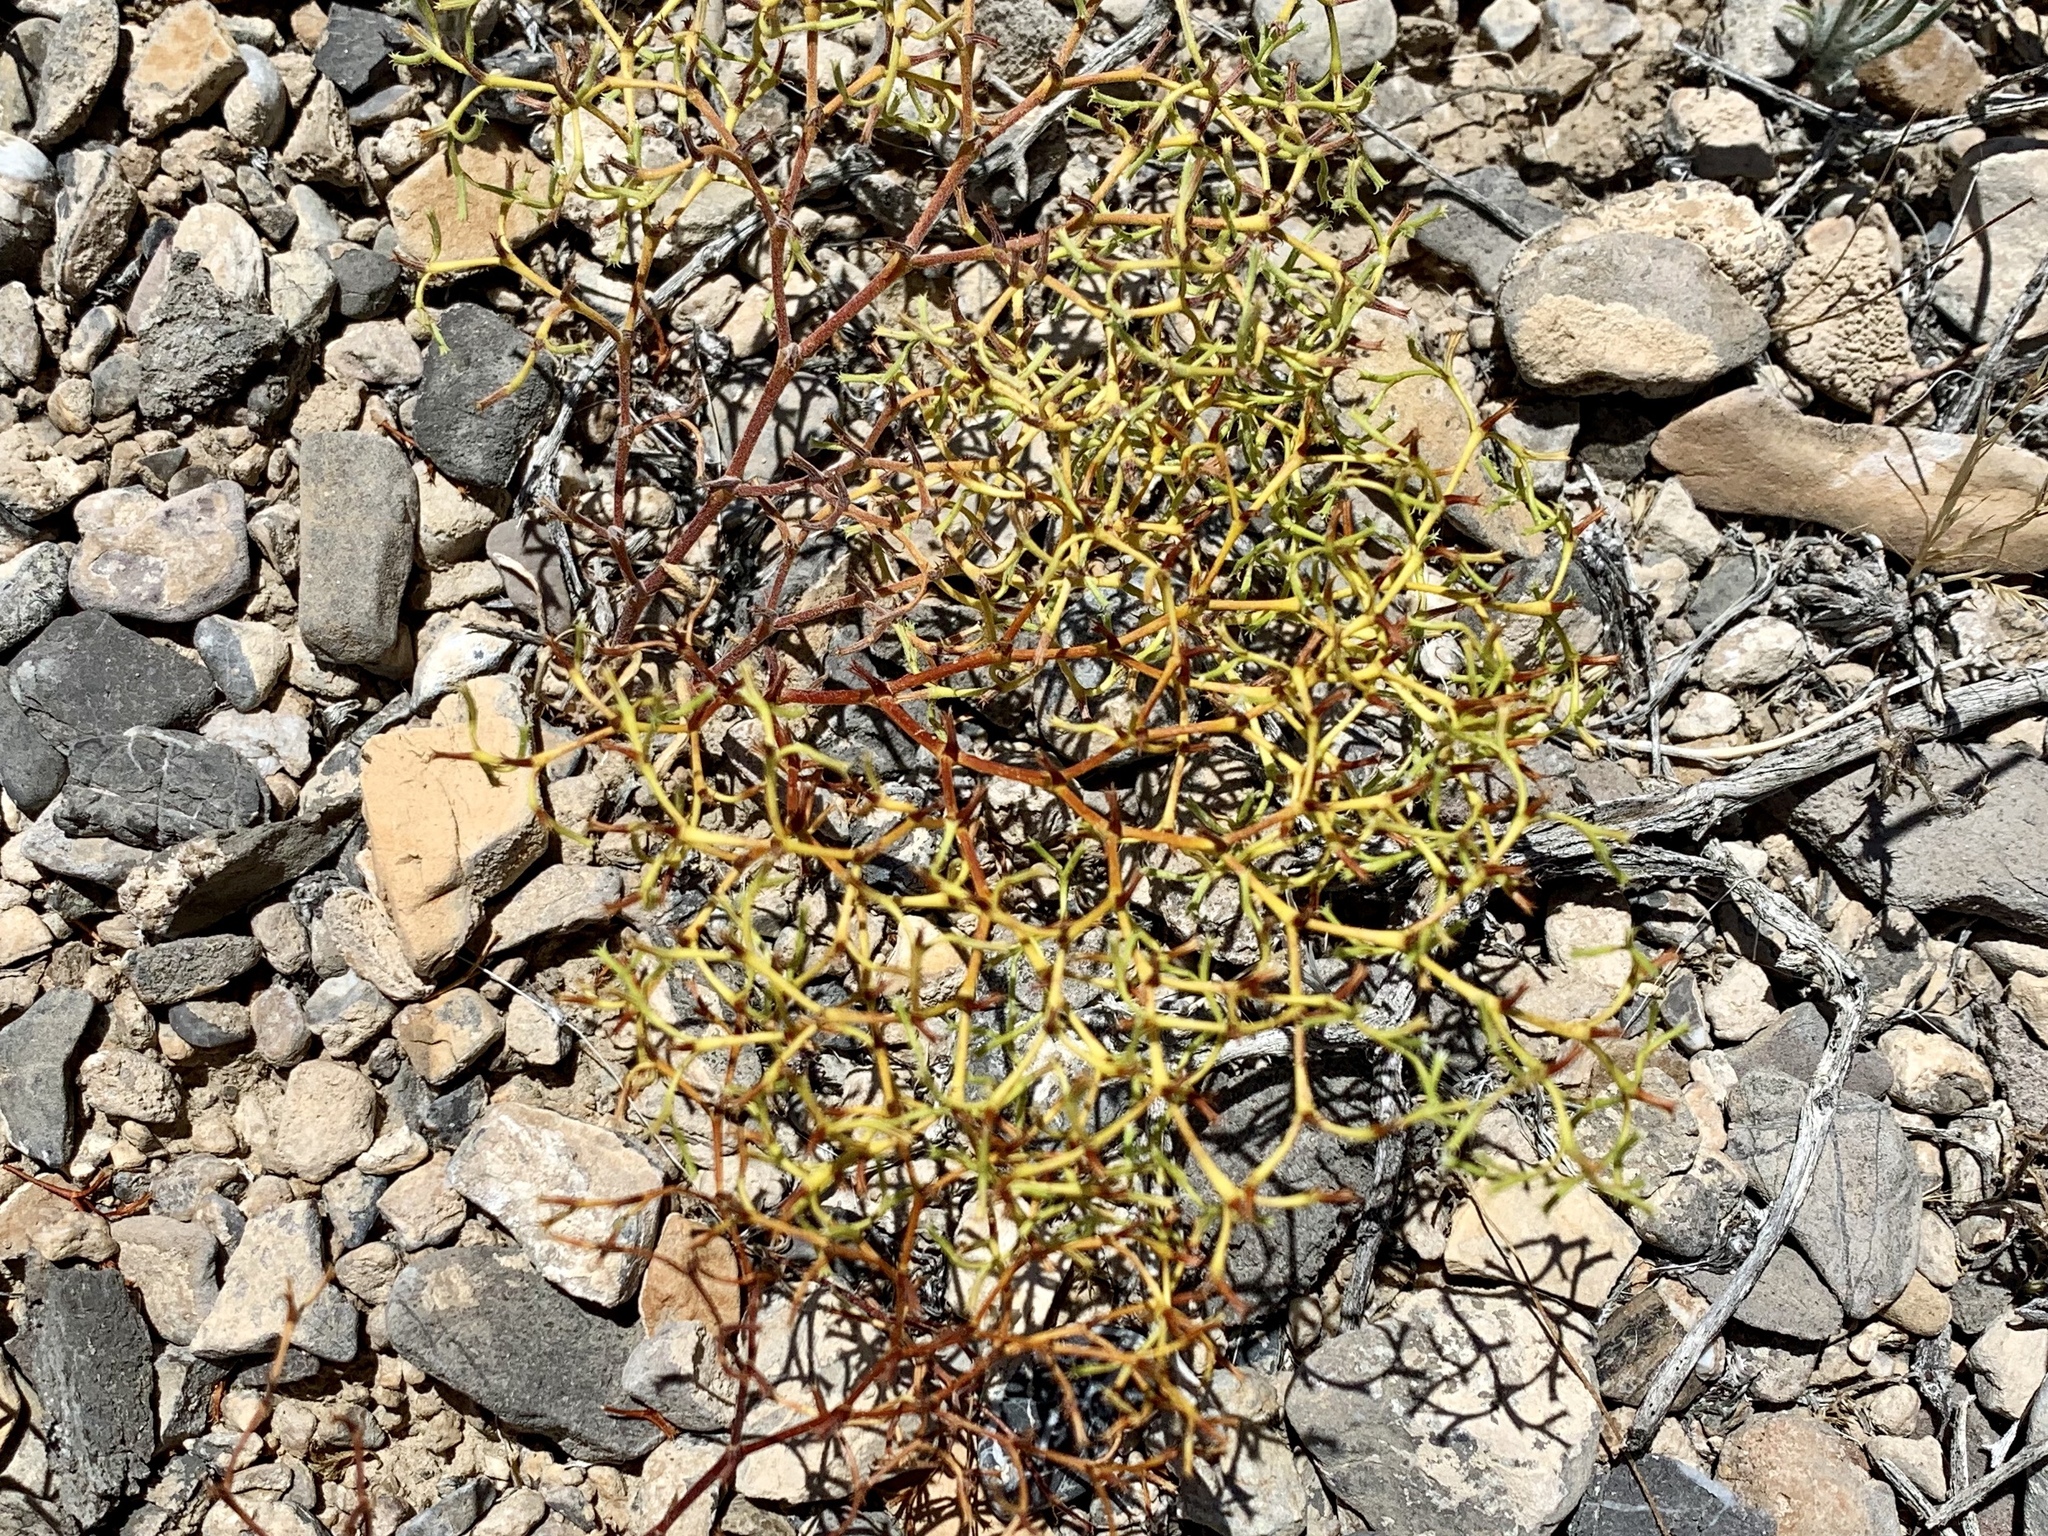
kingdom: Plantae
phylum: Tracheophyta
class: Magnoliopsida
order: Caryophyllales
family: Polygonaceae
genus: Chorizanthe
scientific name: Chorizanthe brevicornu
